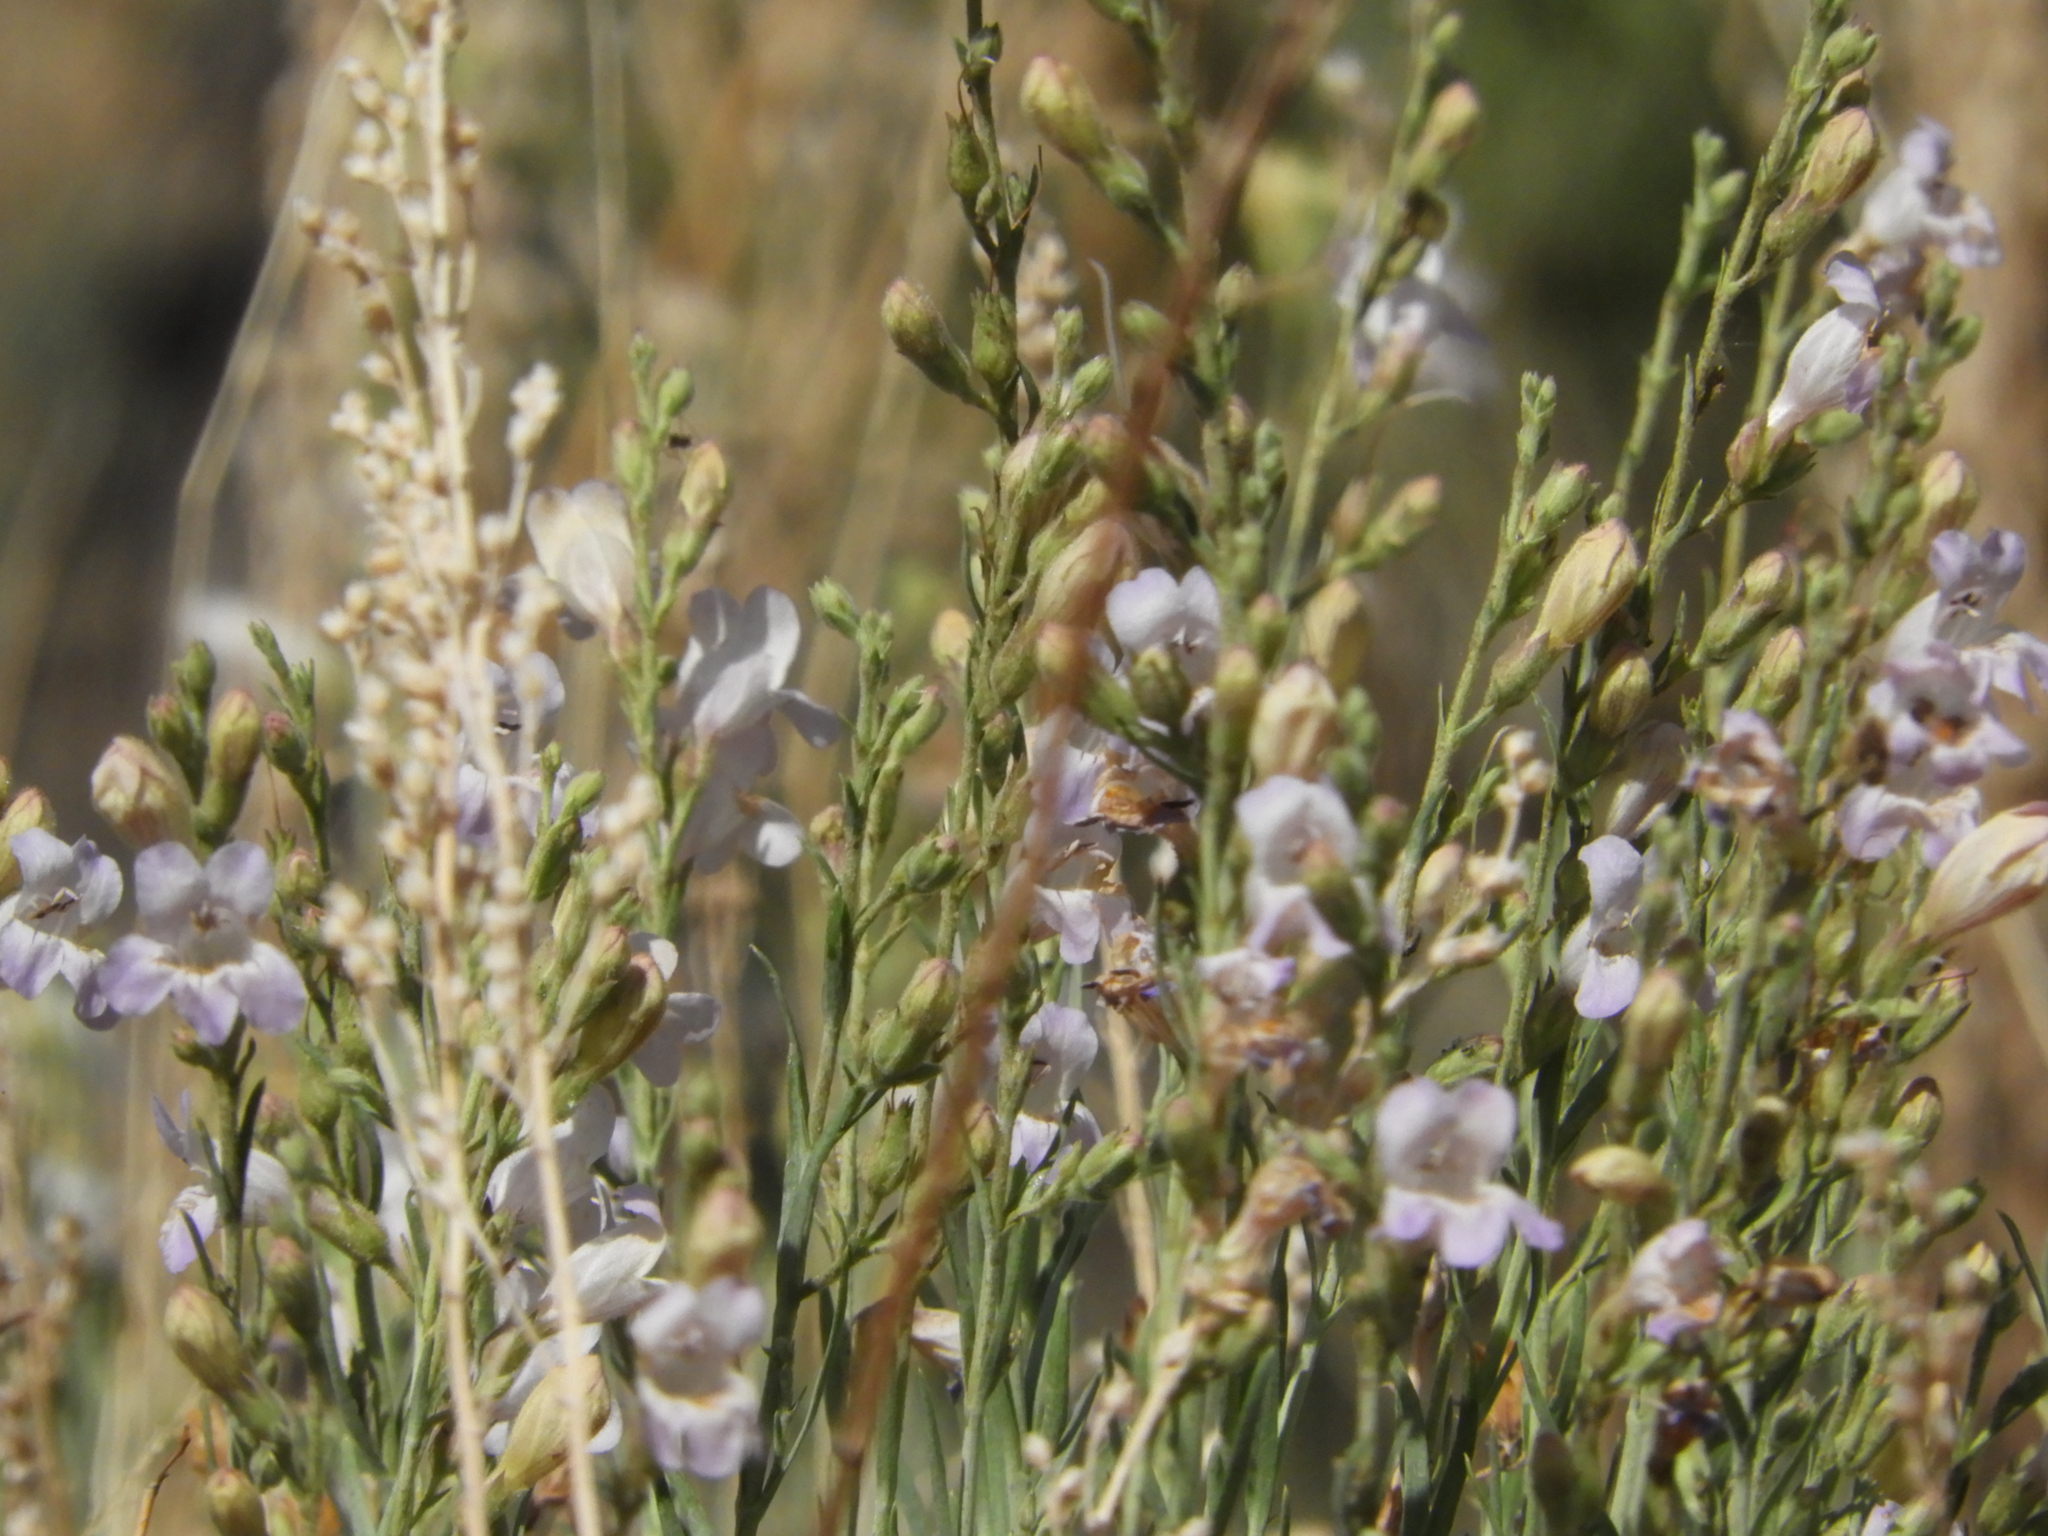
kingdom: Plantae
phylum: Tracheophyta
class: Magnoliopsida
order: Lamiales
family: Plantaginaceae
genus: Penstemon
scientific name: Penstemon linarioides
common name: Siler's penstemon
